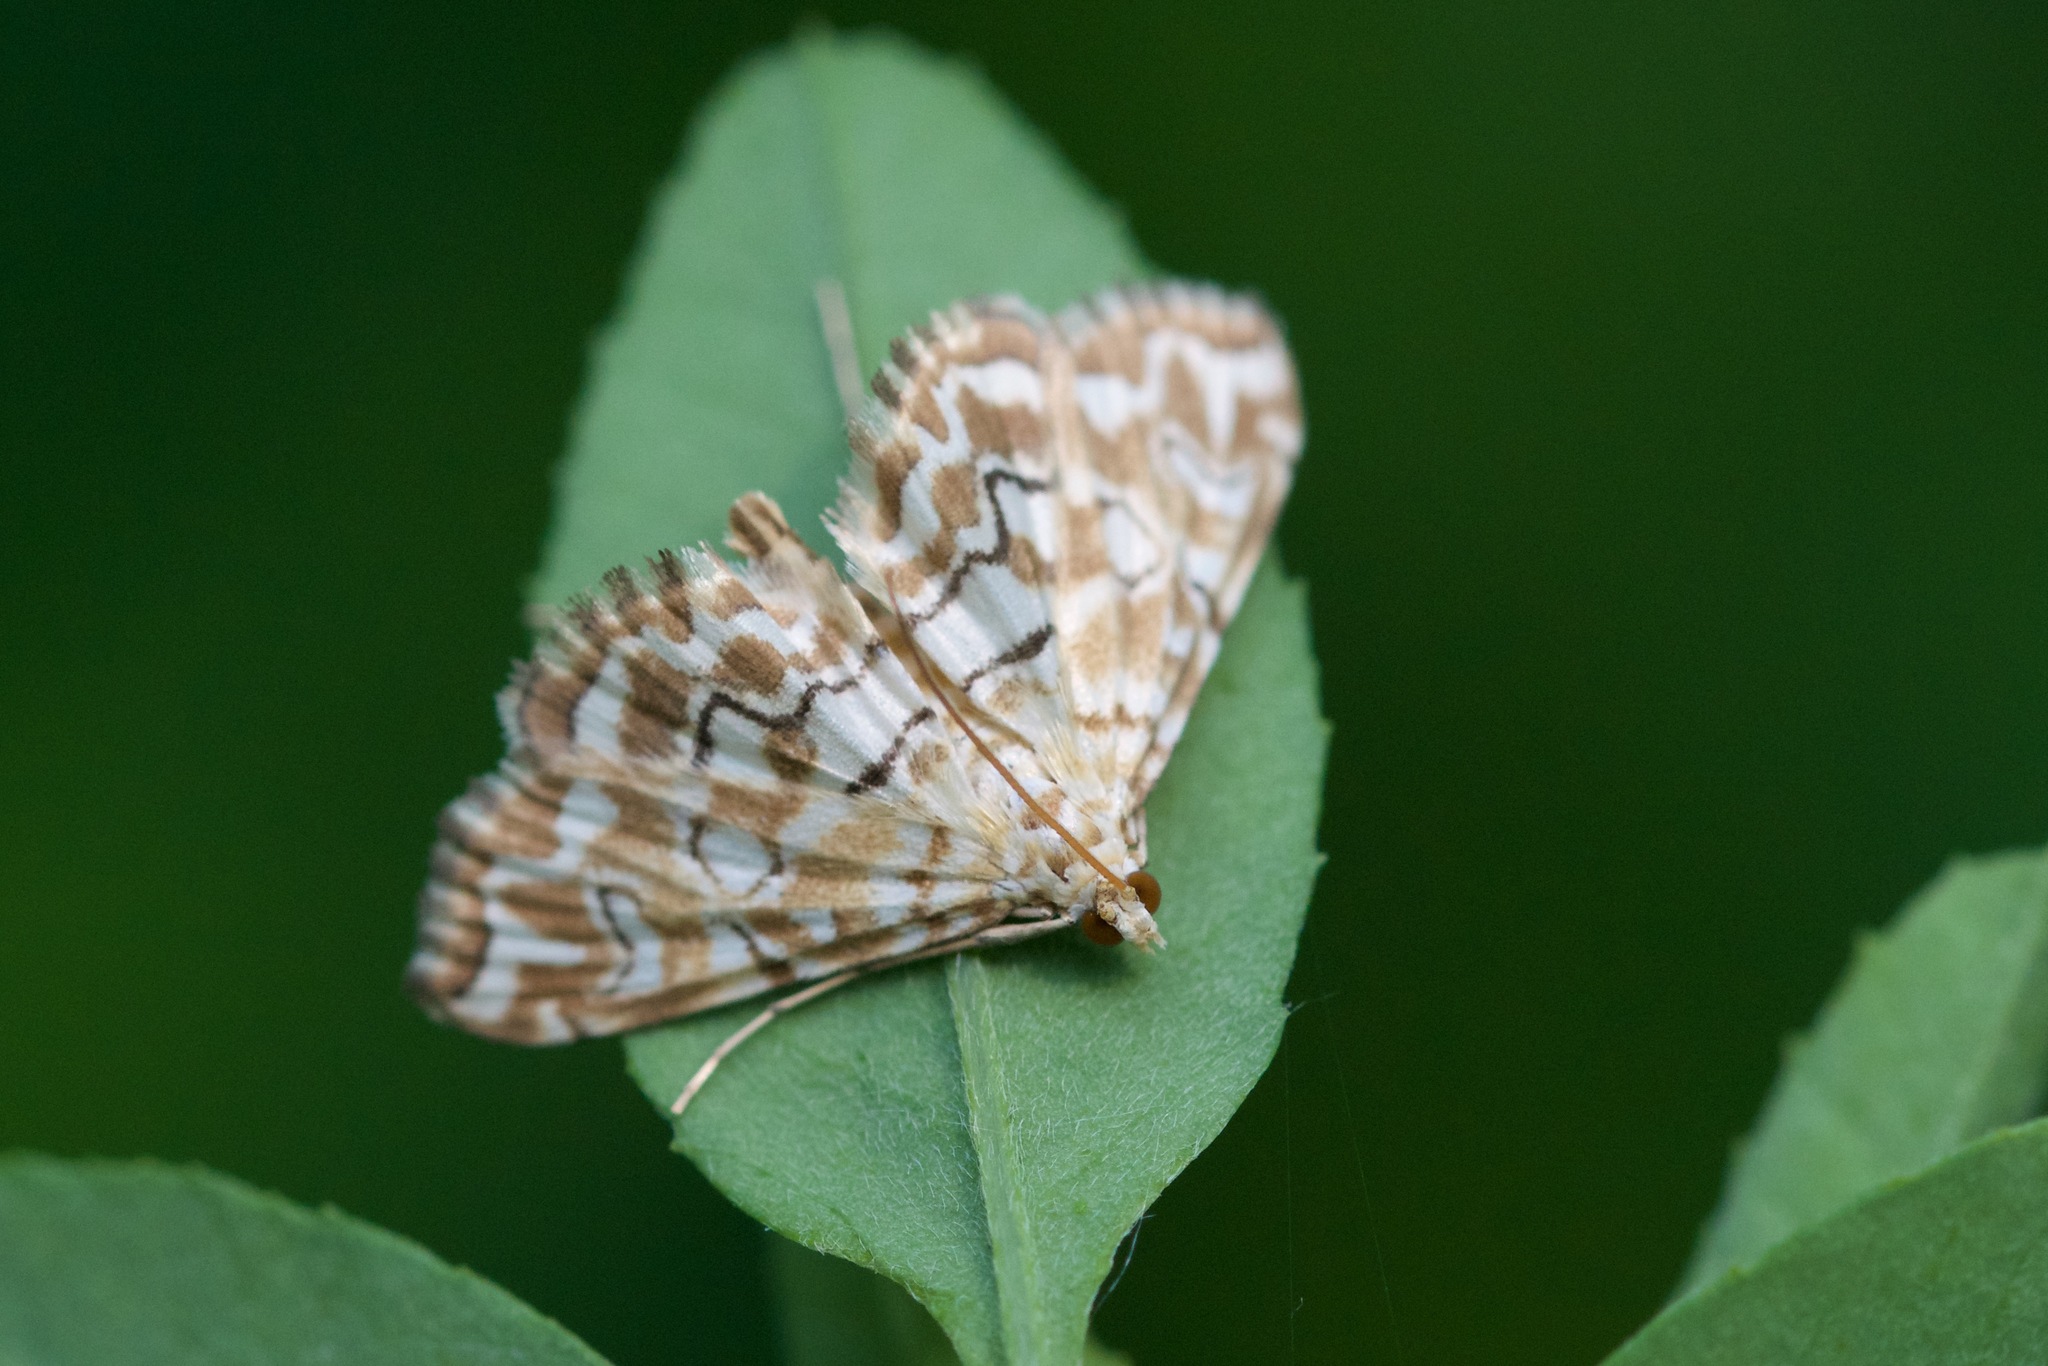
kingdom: Animalia
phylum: Arthropoda
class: Insecta
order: Lepidoptera
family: Crambidae
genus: Elophila
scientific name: Elophila icciusalis
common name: Pondside pyralid moth
